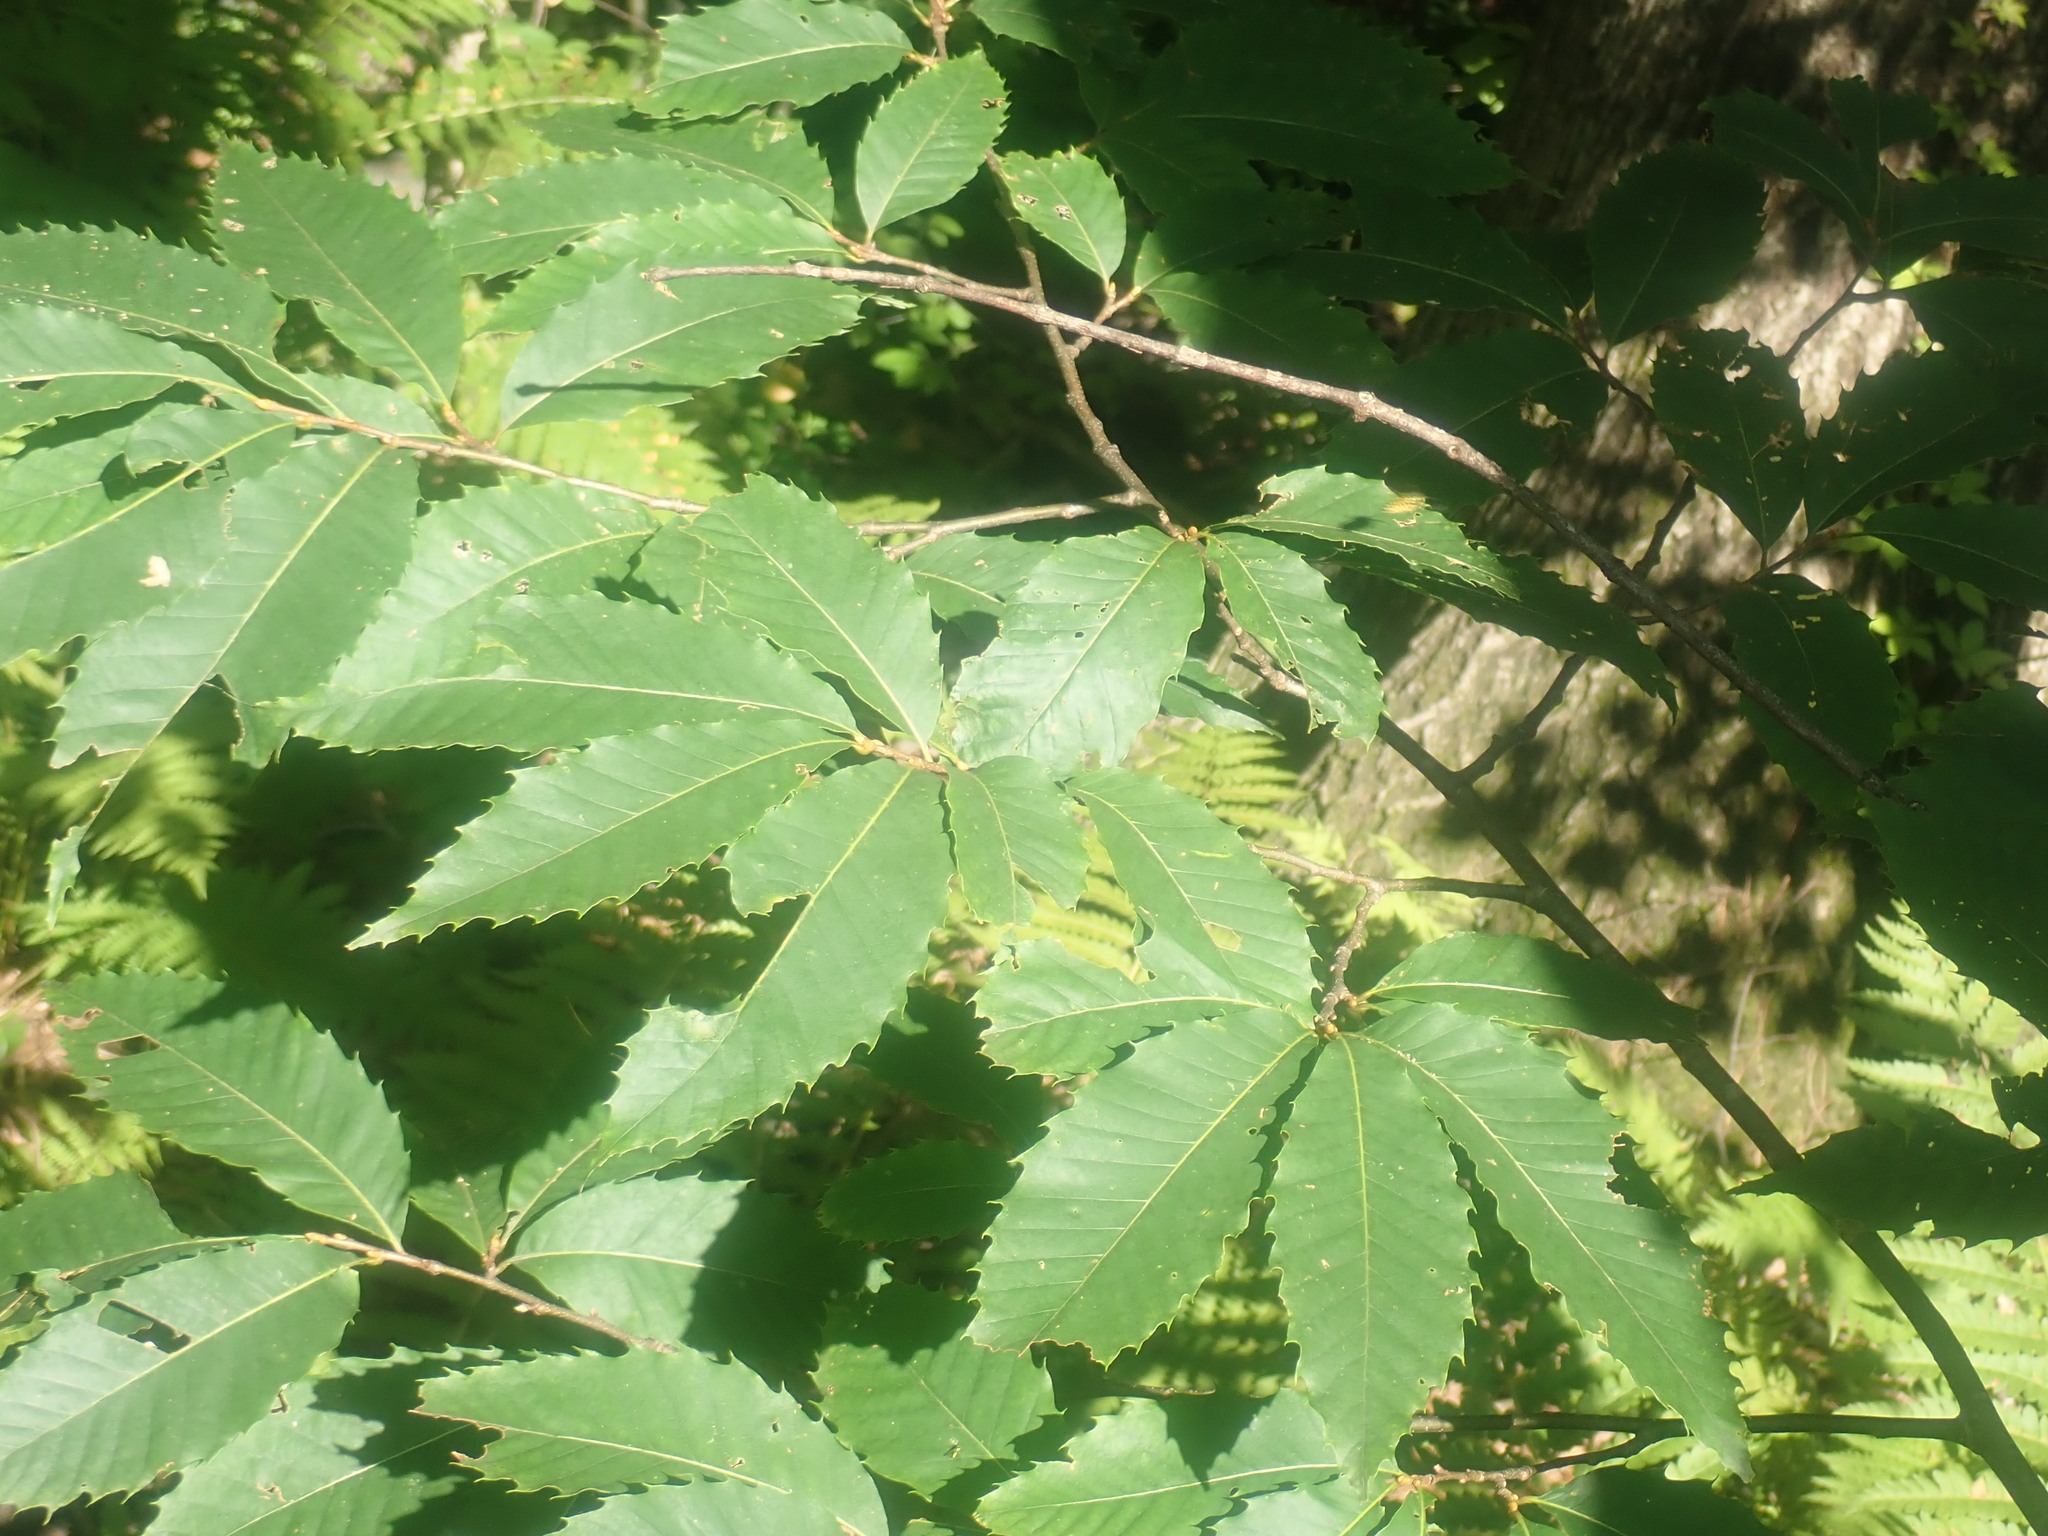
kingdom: Plantae
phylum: Tracheophyta
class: Magnoliopsida
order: Fagales
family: Fagaceae
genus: Castanea
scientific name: Castanea dentata
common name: American chestnut
